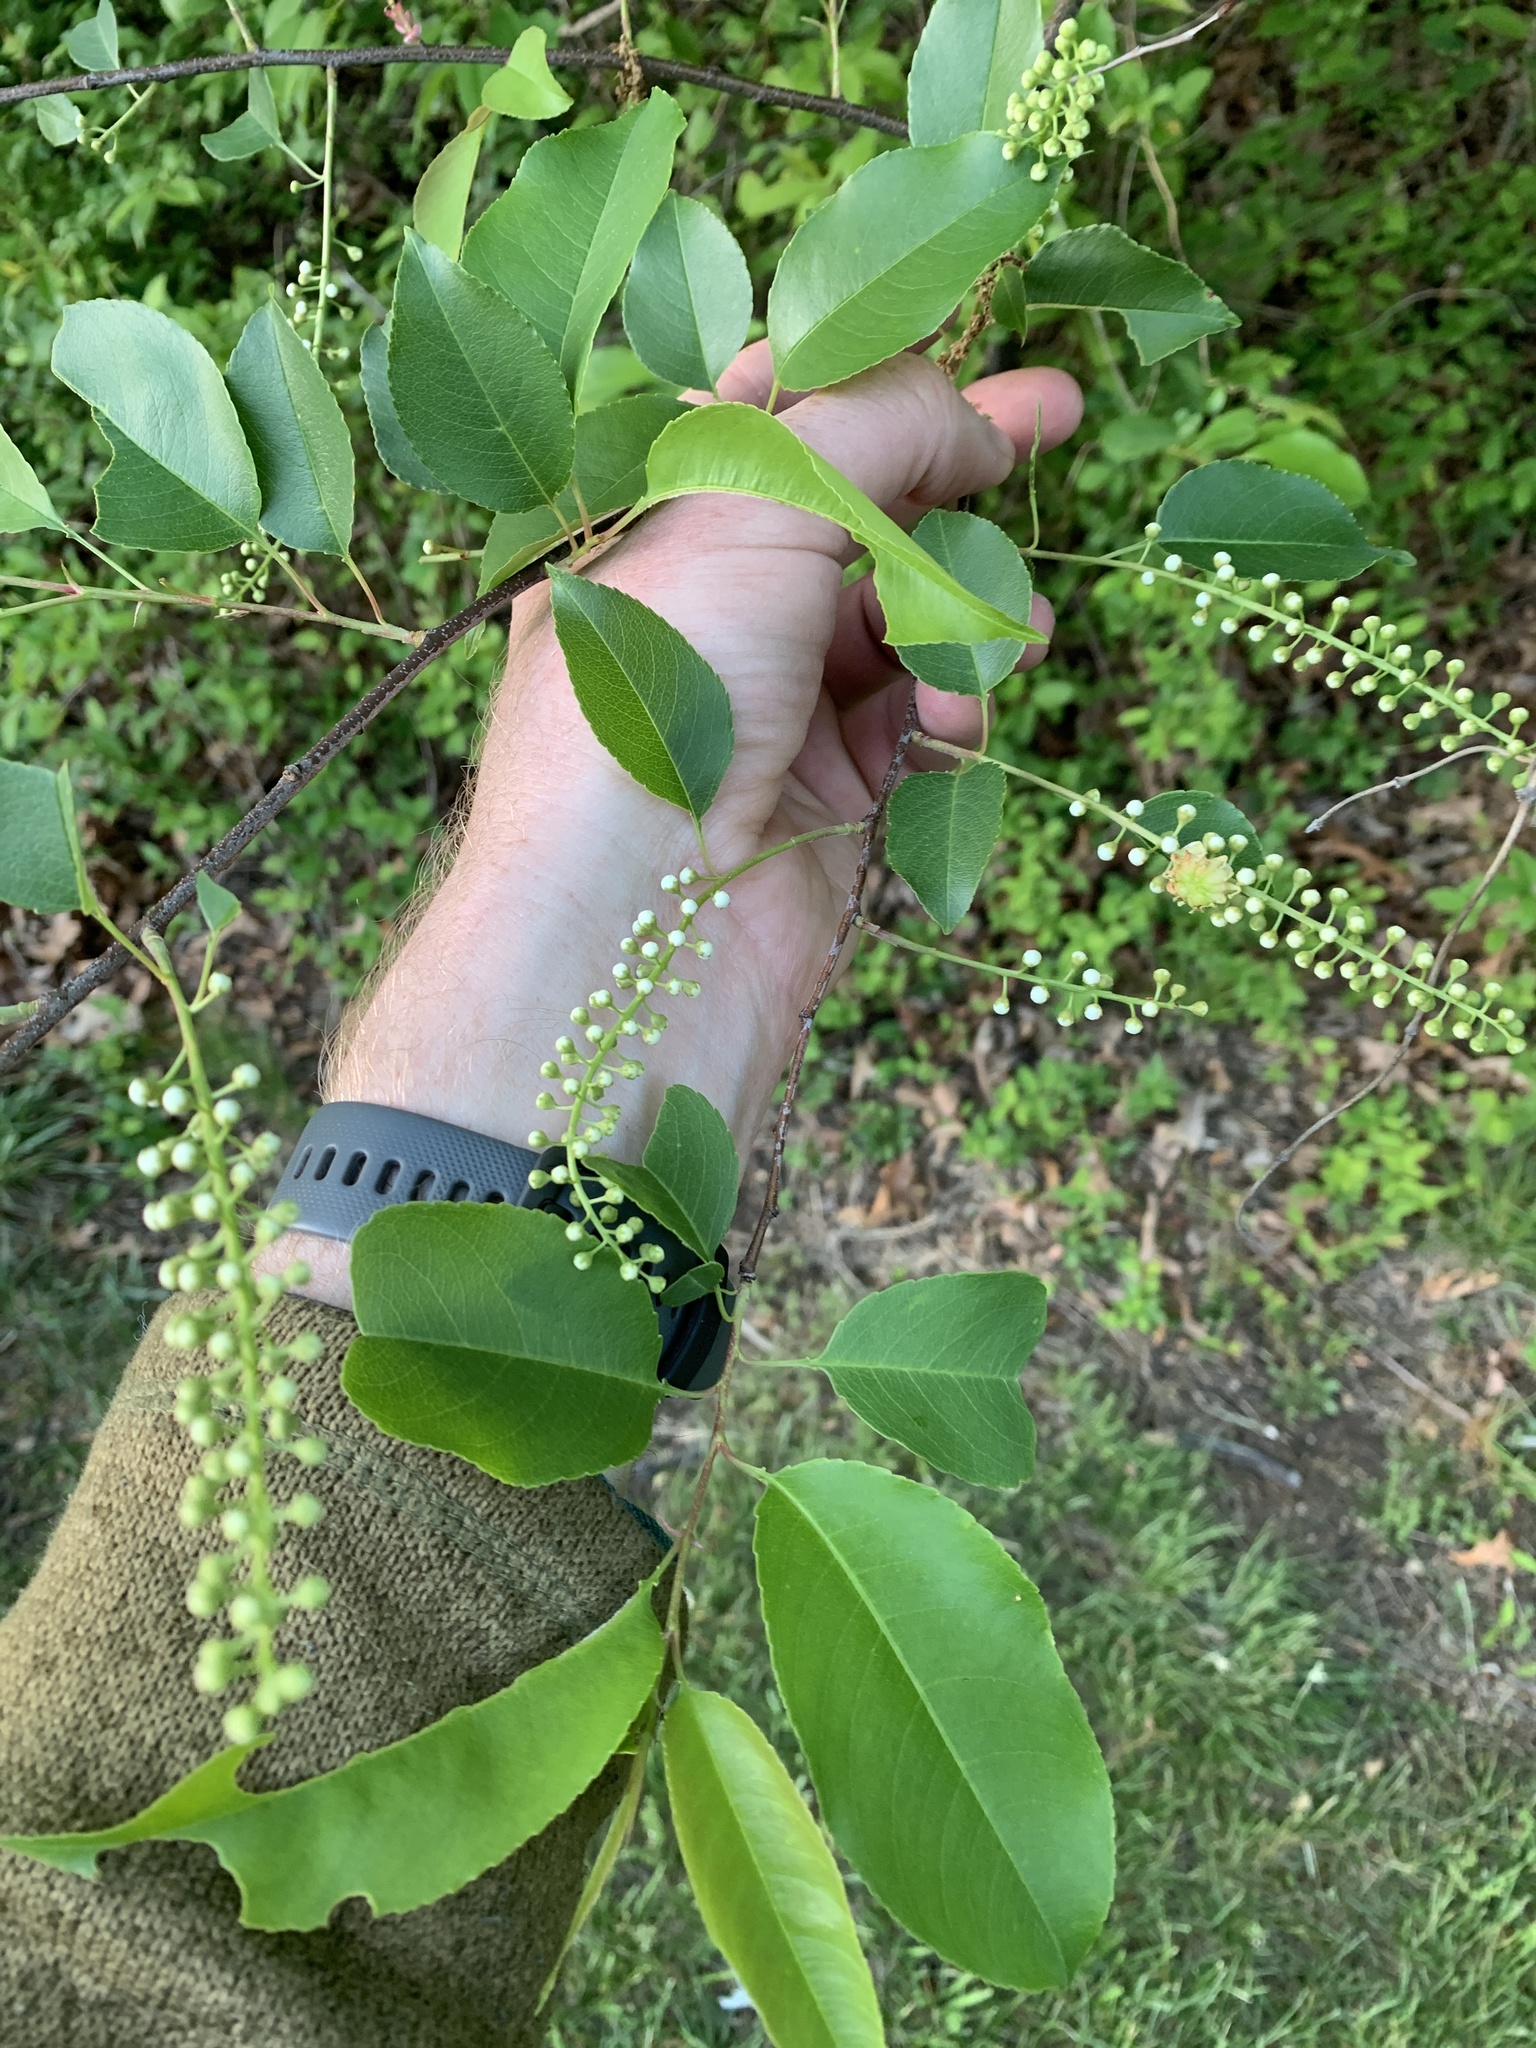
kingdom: Plantae
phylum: Tracheophyta
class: Magnoliopsida
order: Rosales
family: Rosaceae
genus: Prunus
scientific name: Prunus serotina
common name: Black cherry
